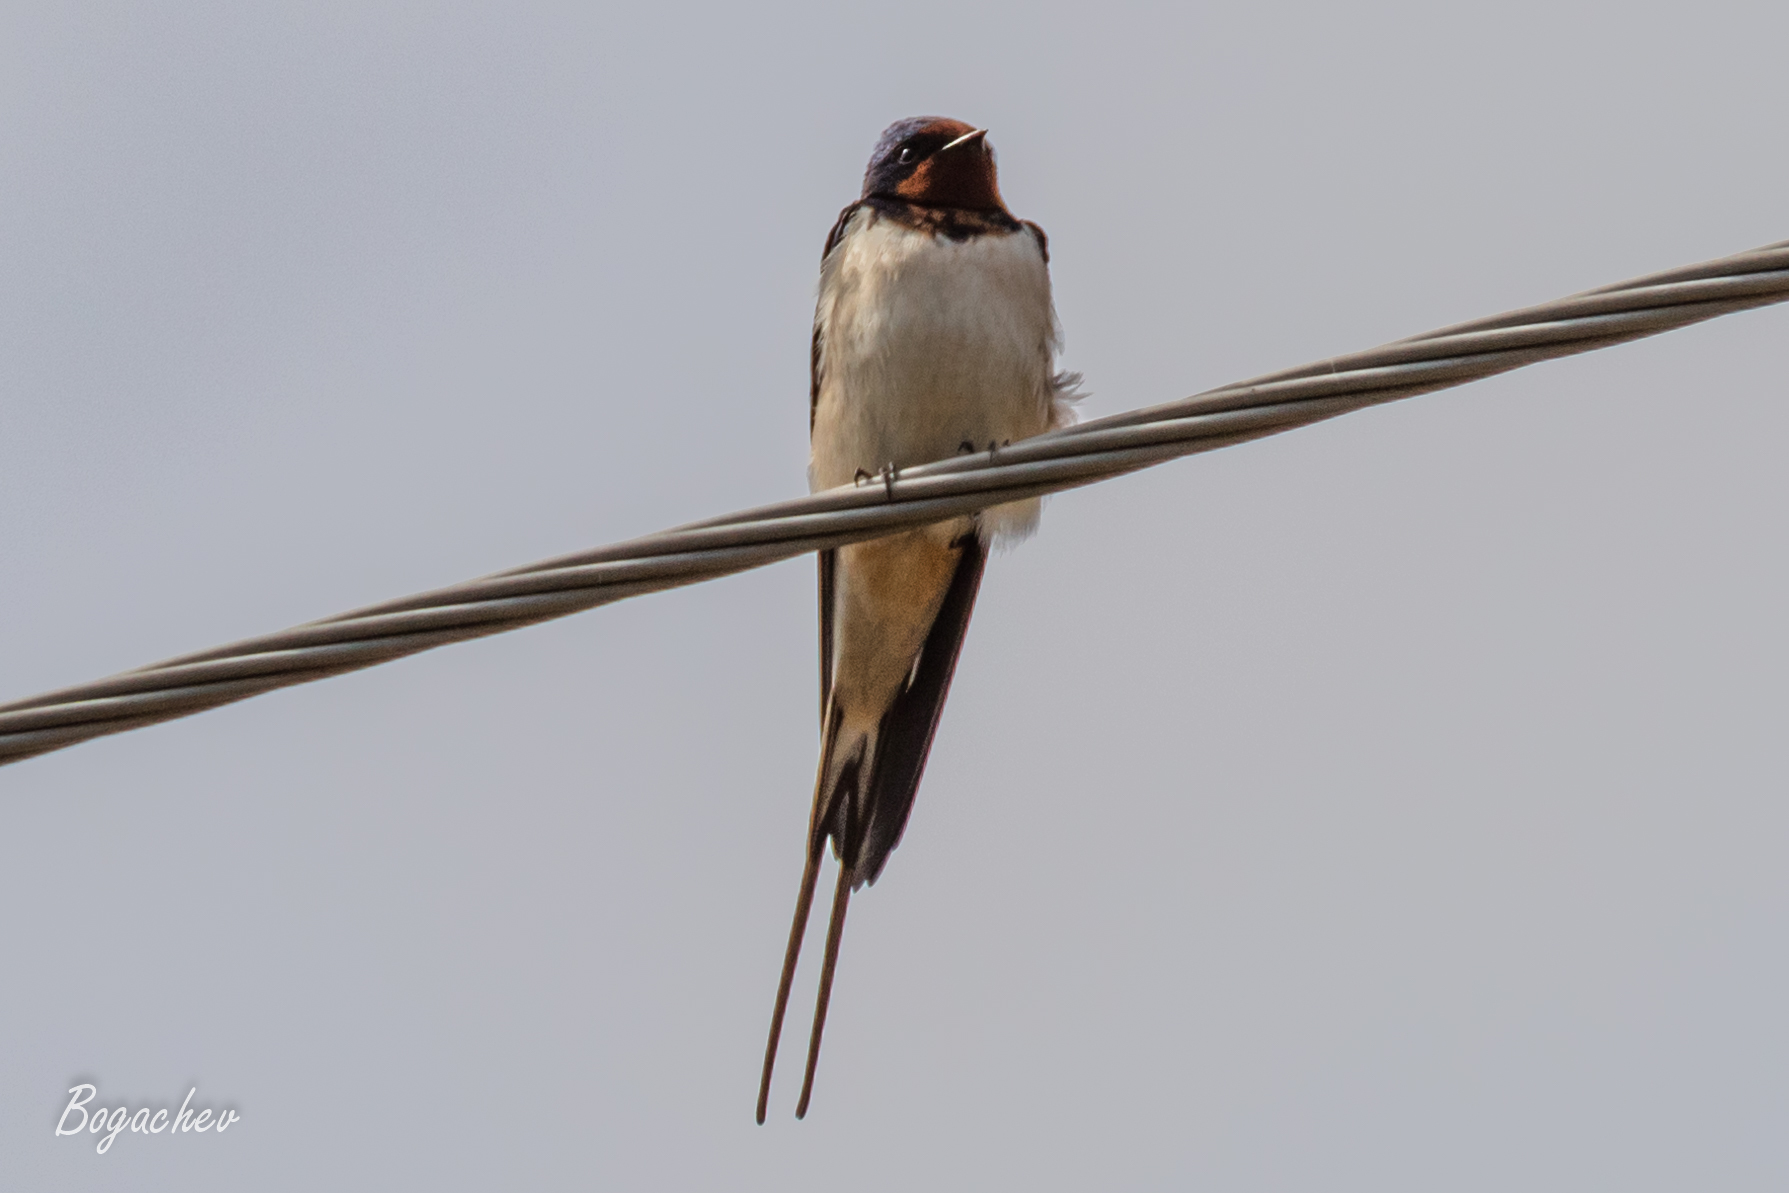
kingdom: Animalia
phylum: Chordata
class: Aves
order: Passeriformes
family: Hirundinidae
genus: Hirundo
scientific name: Hirundo rustica
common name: Barn swallow
